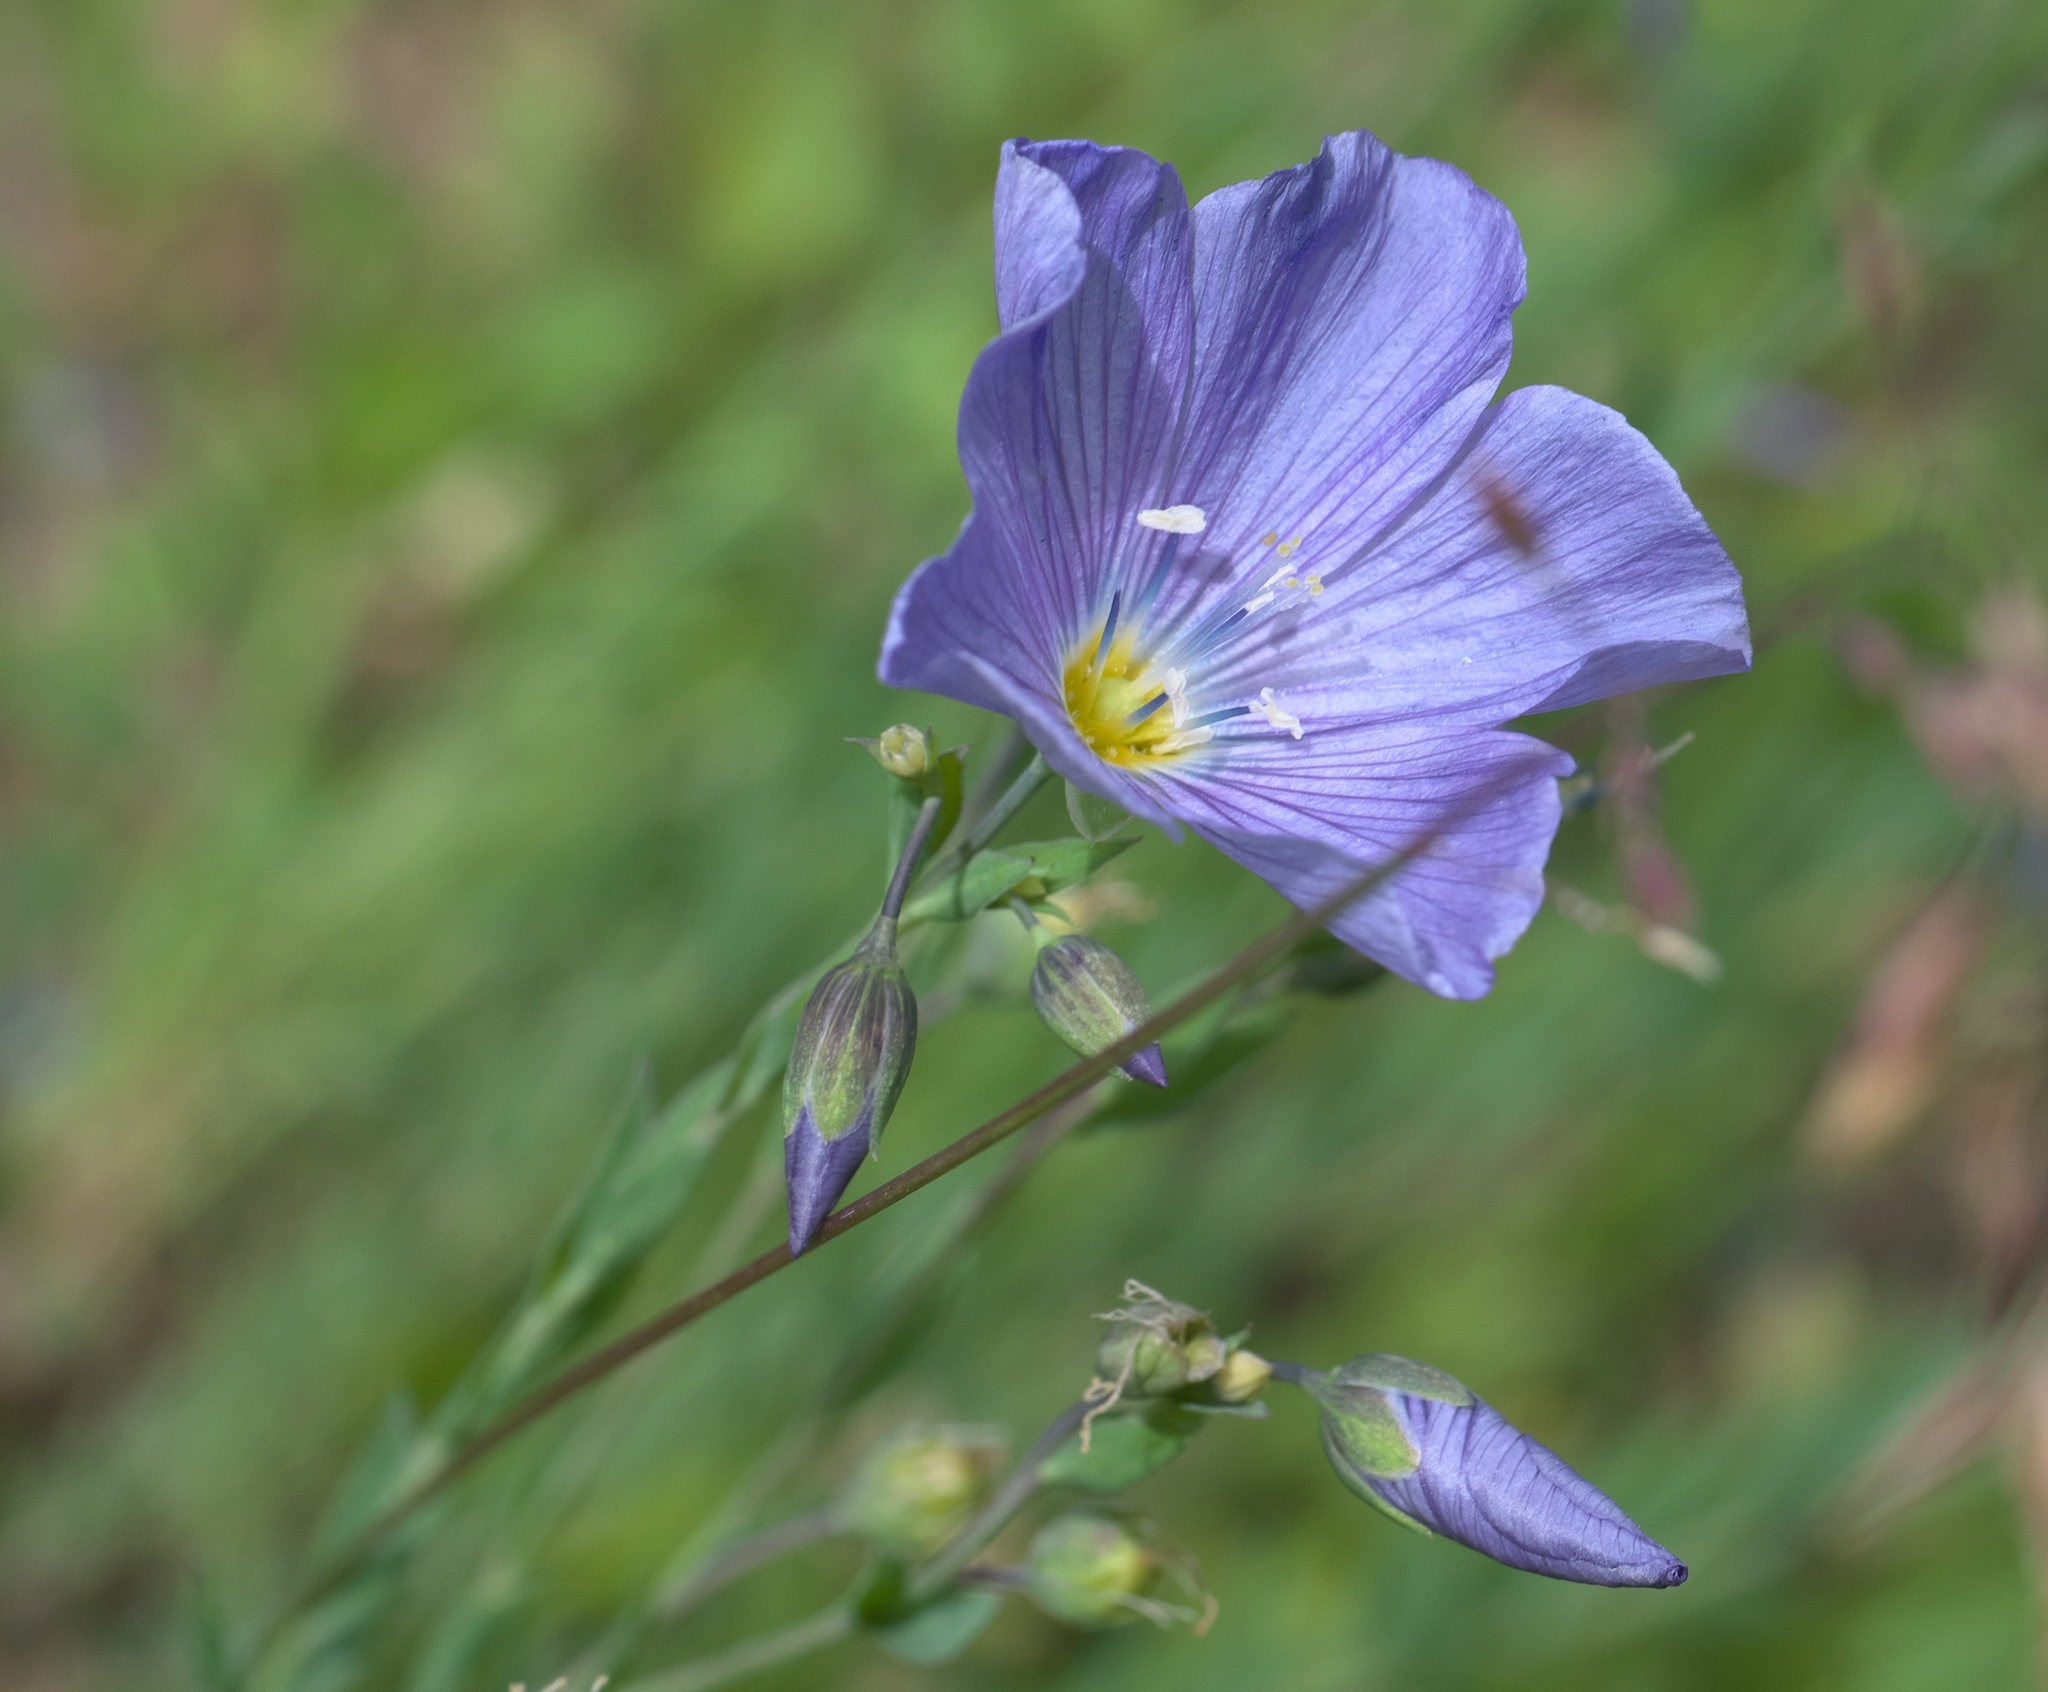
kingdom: Plantae
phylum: Tracheophyta
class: Magnoliopsida
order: Malpighiales
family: Linaceae
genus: Linum
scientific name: Linum lewisii
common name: Prairie flax
